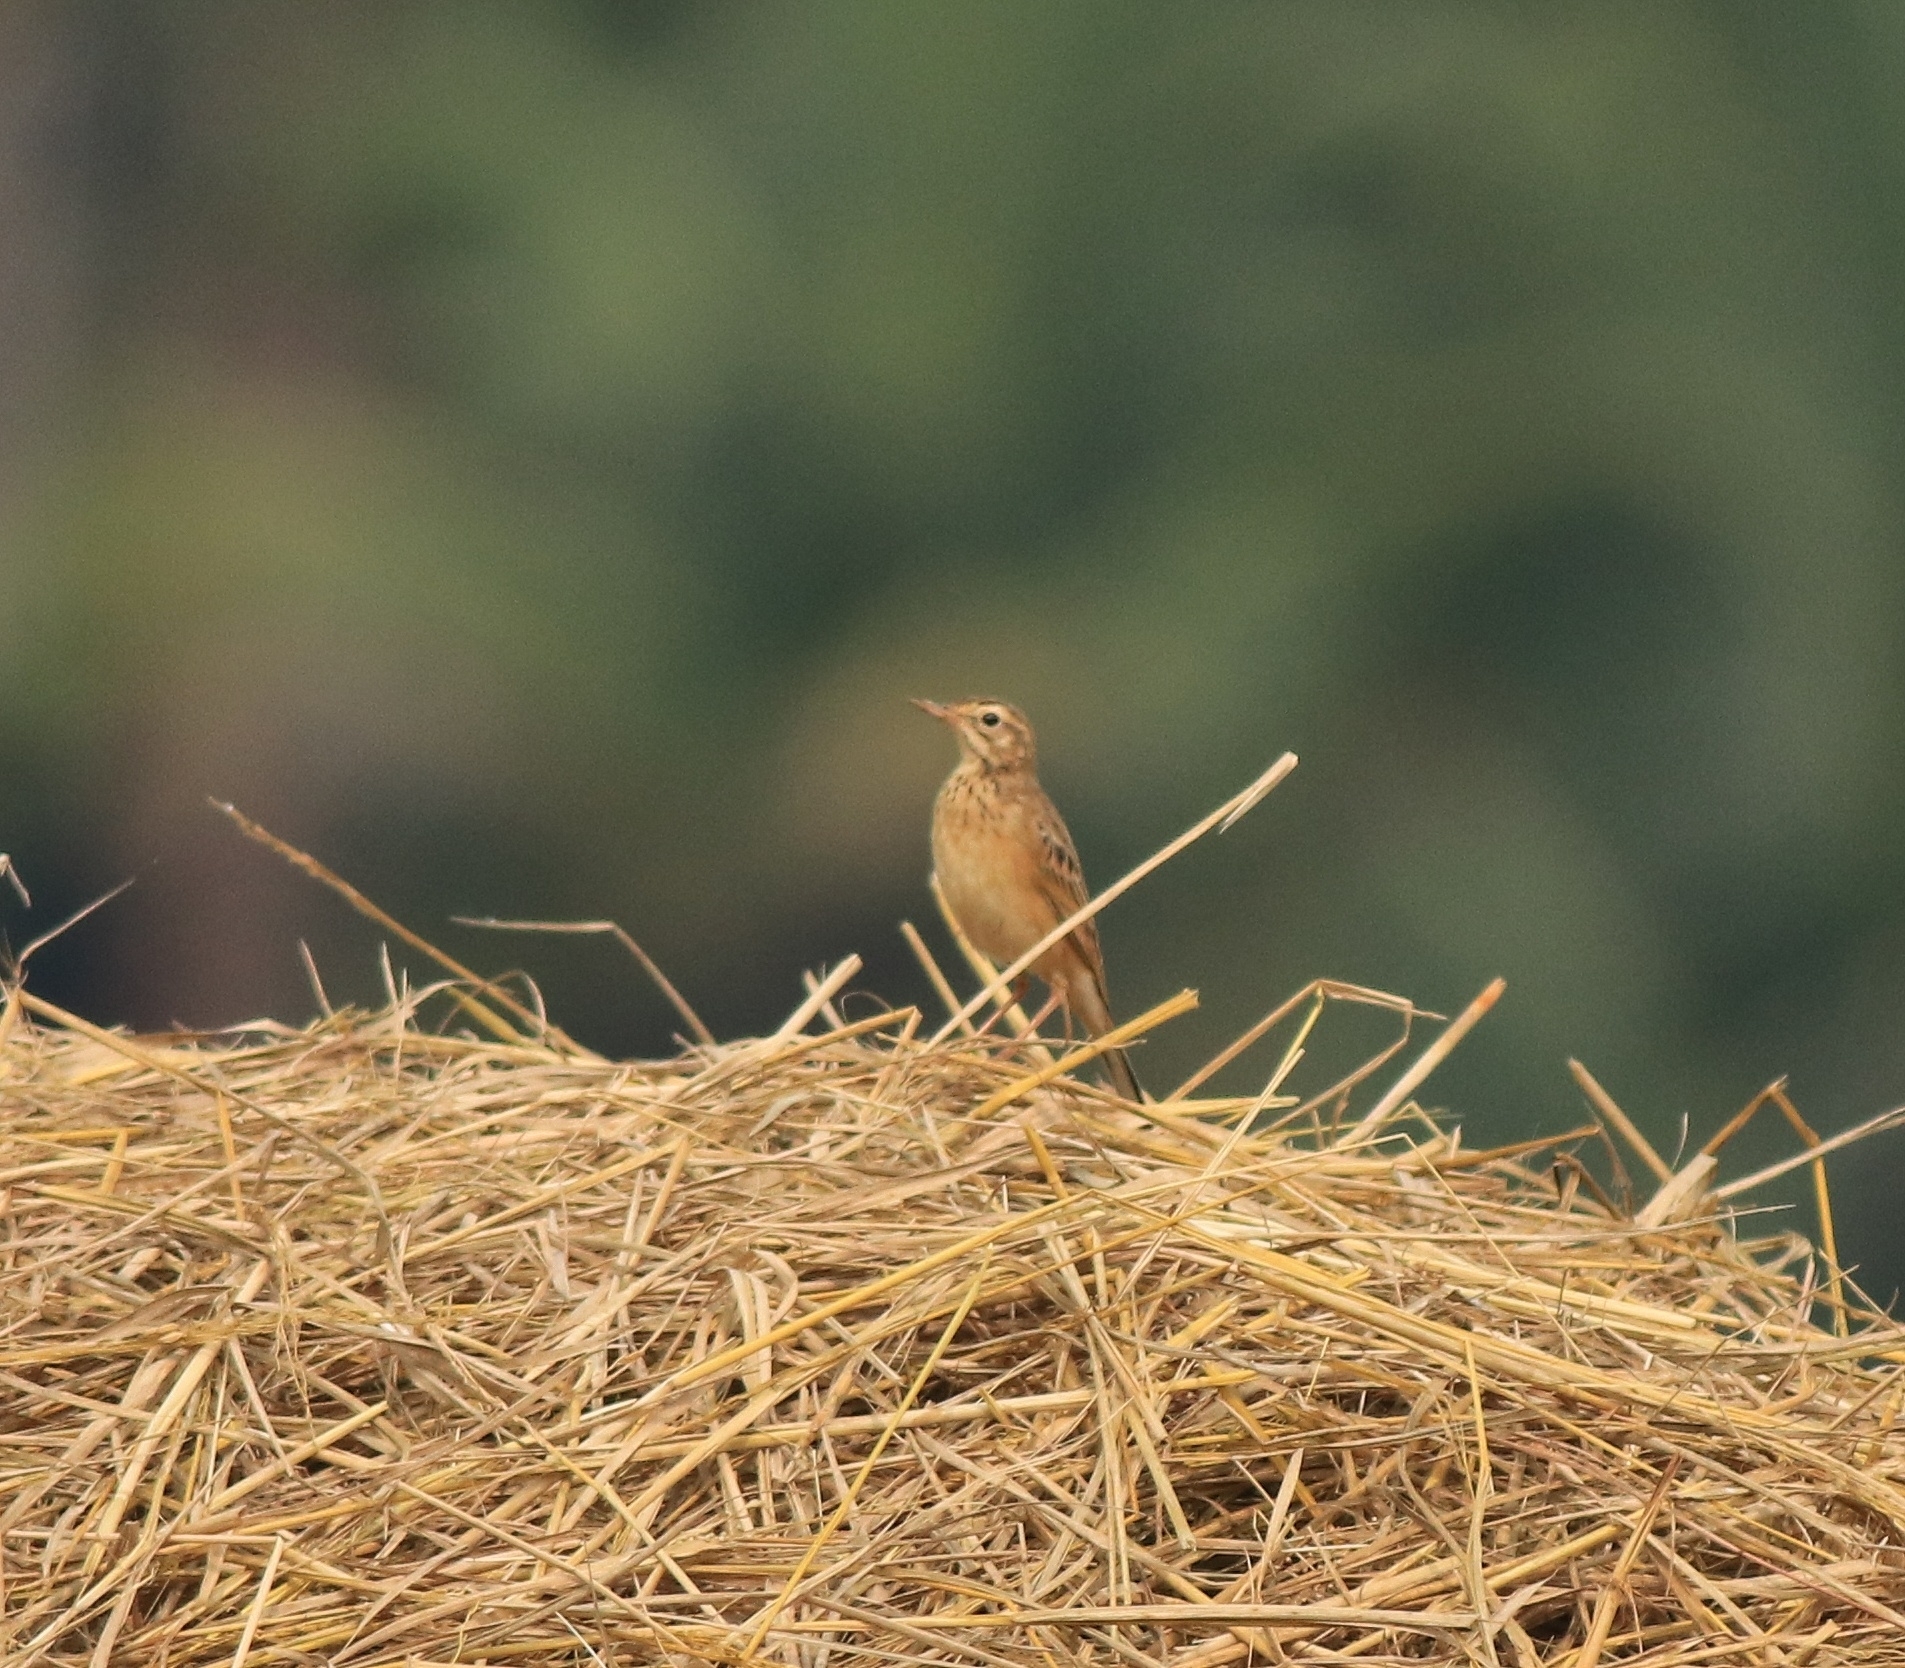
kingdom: Animalia
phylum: Chordata
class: Aves
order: Passeriformes
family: Motacillidae
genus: Anthus
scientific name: Anthus rufulus
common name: Paddyfield pipit
